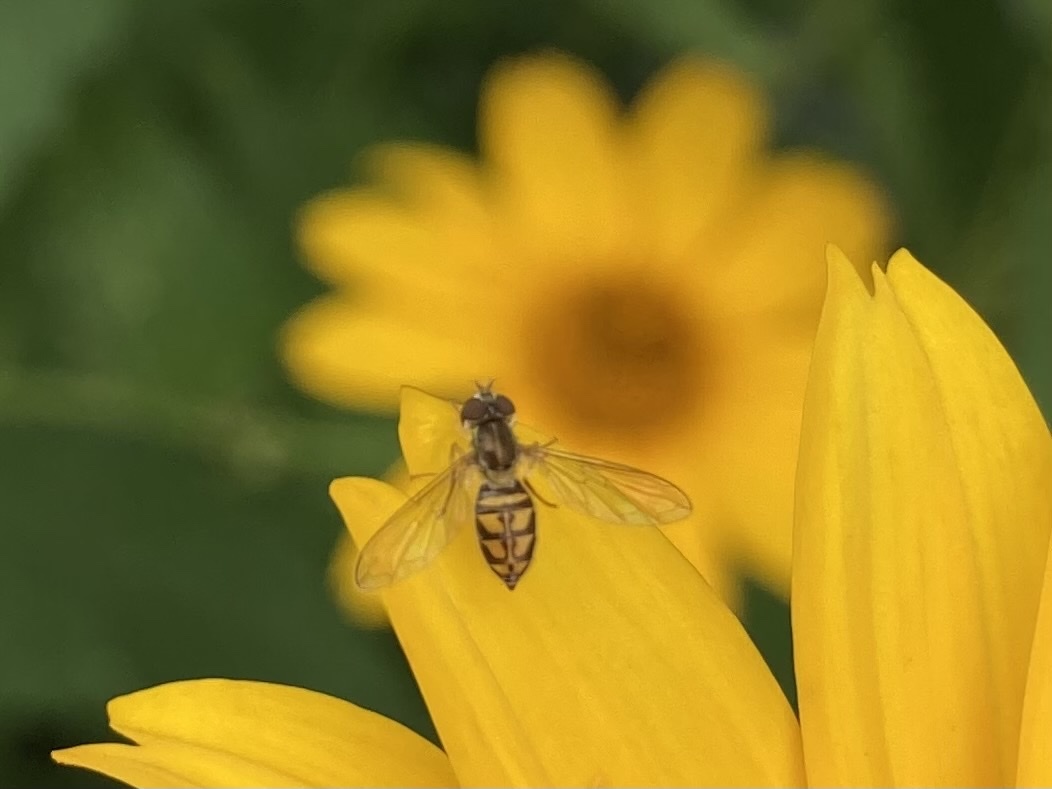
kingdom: Animalia
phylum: Arthropoda
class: Insecta
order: Diptera
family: Syrphidae
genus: Toxomerus
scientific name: Toxomerus marginatus
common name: Syrphid fly
